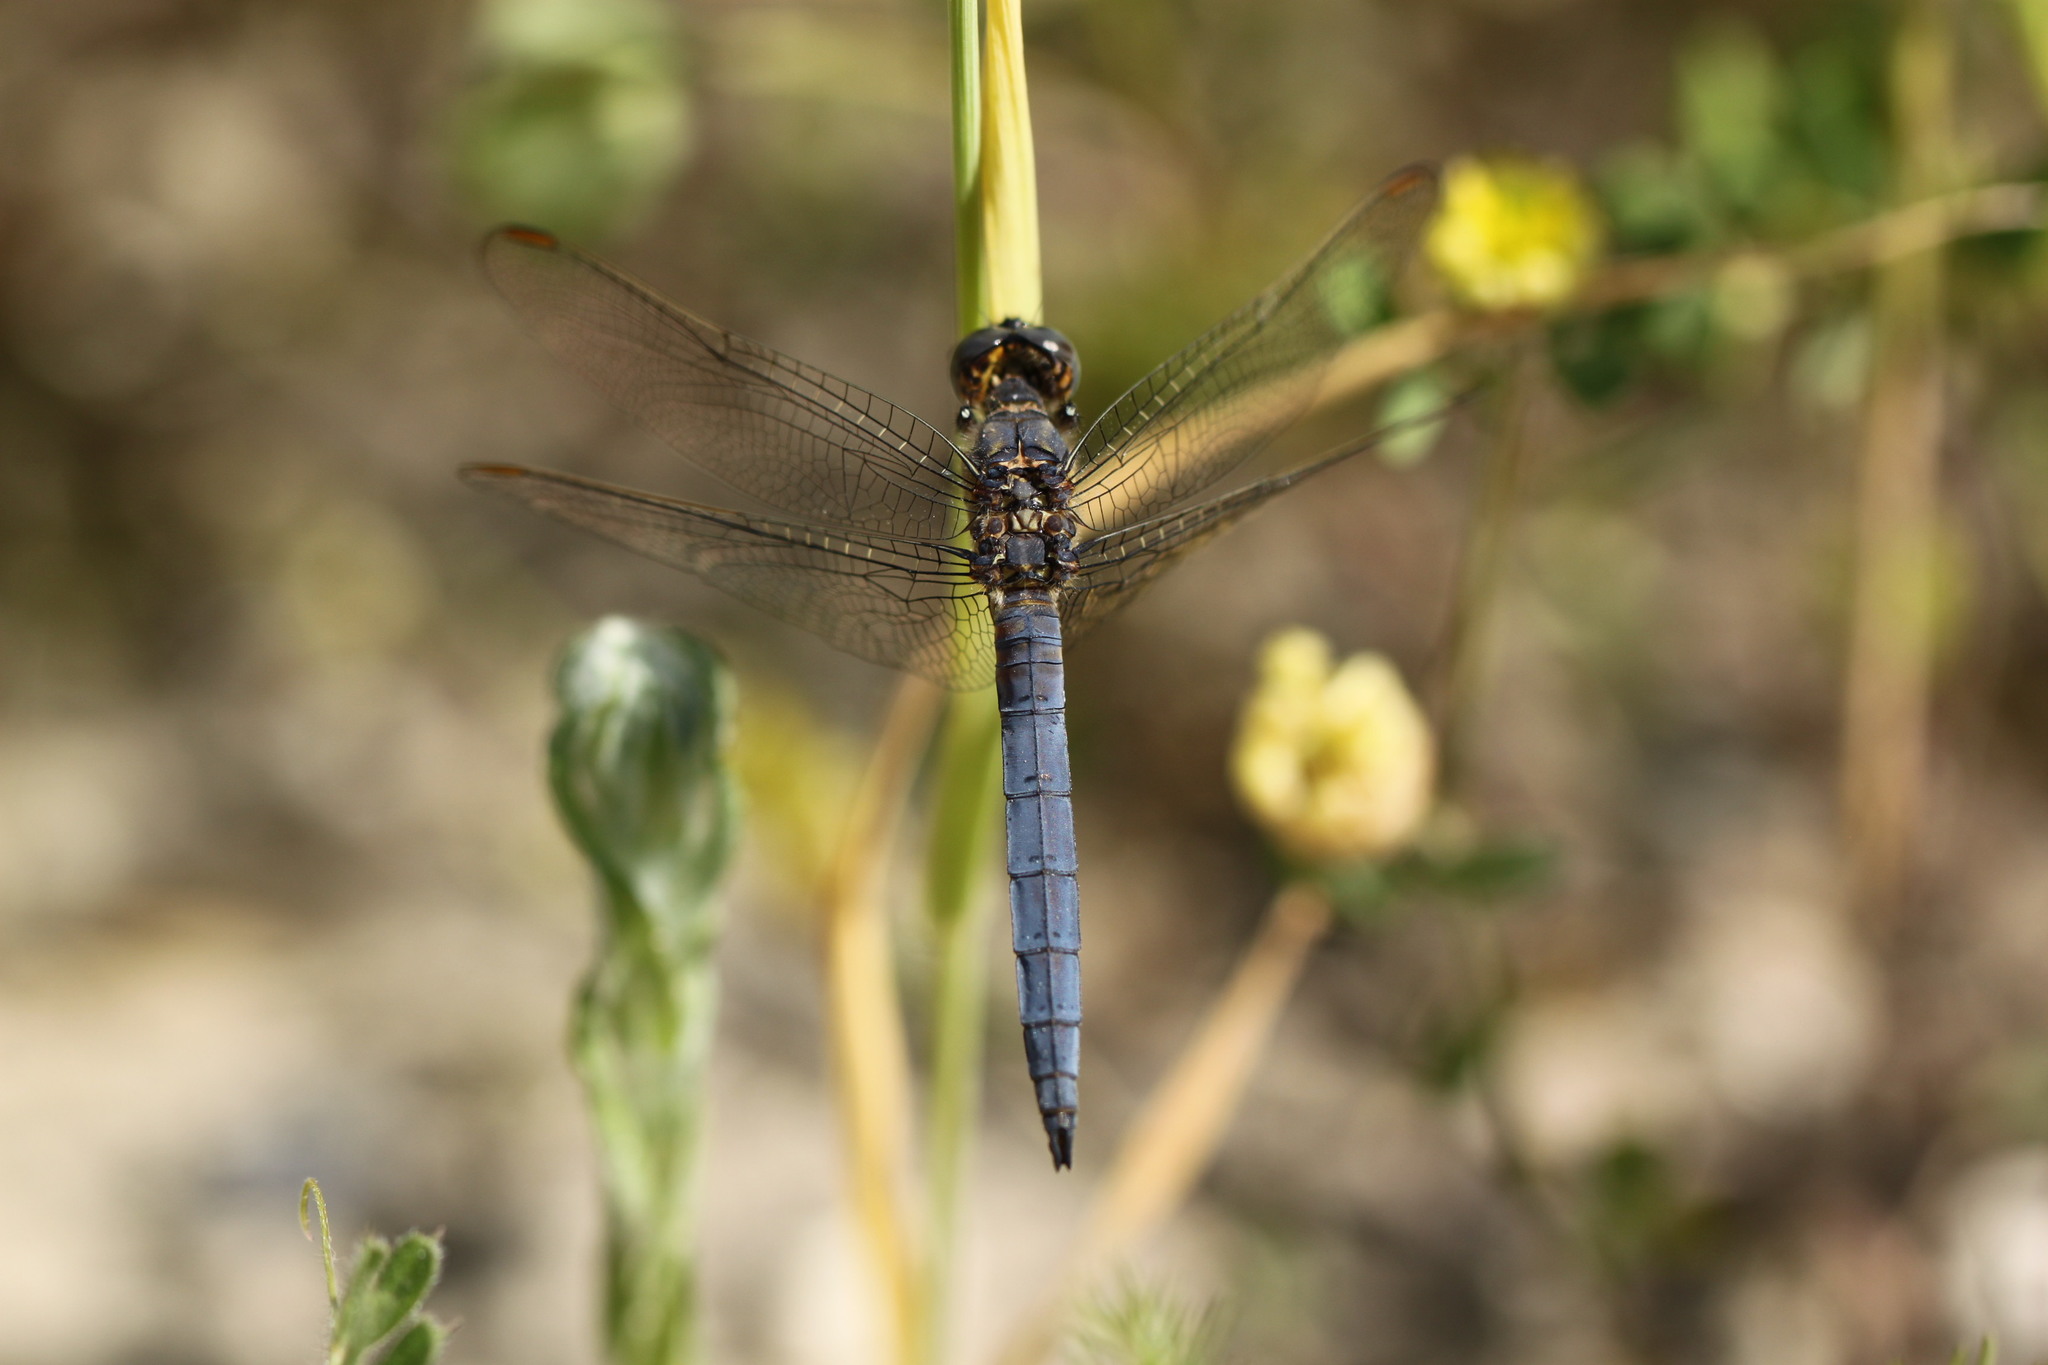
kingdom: Animalia
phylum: Arthropoda
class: Insecta
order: Odonata
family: Libellulidae
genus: Orthetrum
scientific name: Orthetrum coerulescens
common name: Keeled skimmer
